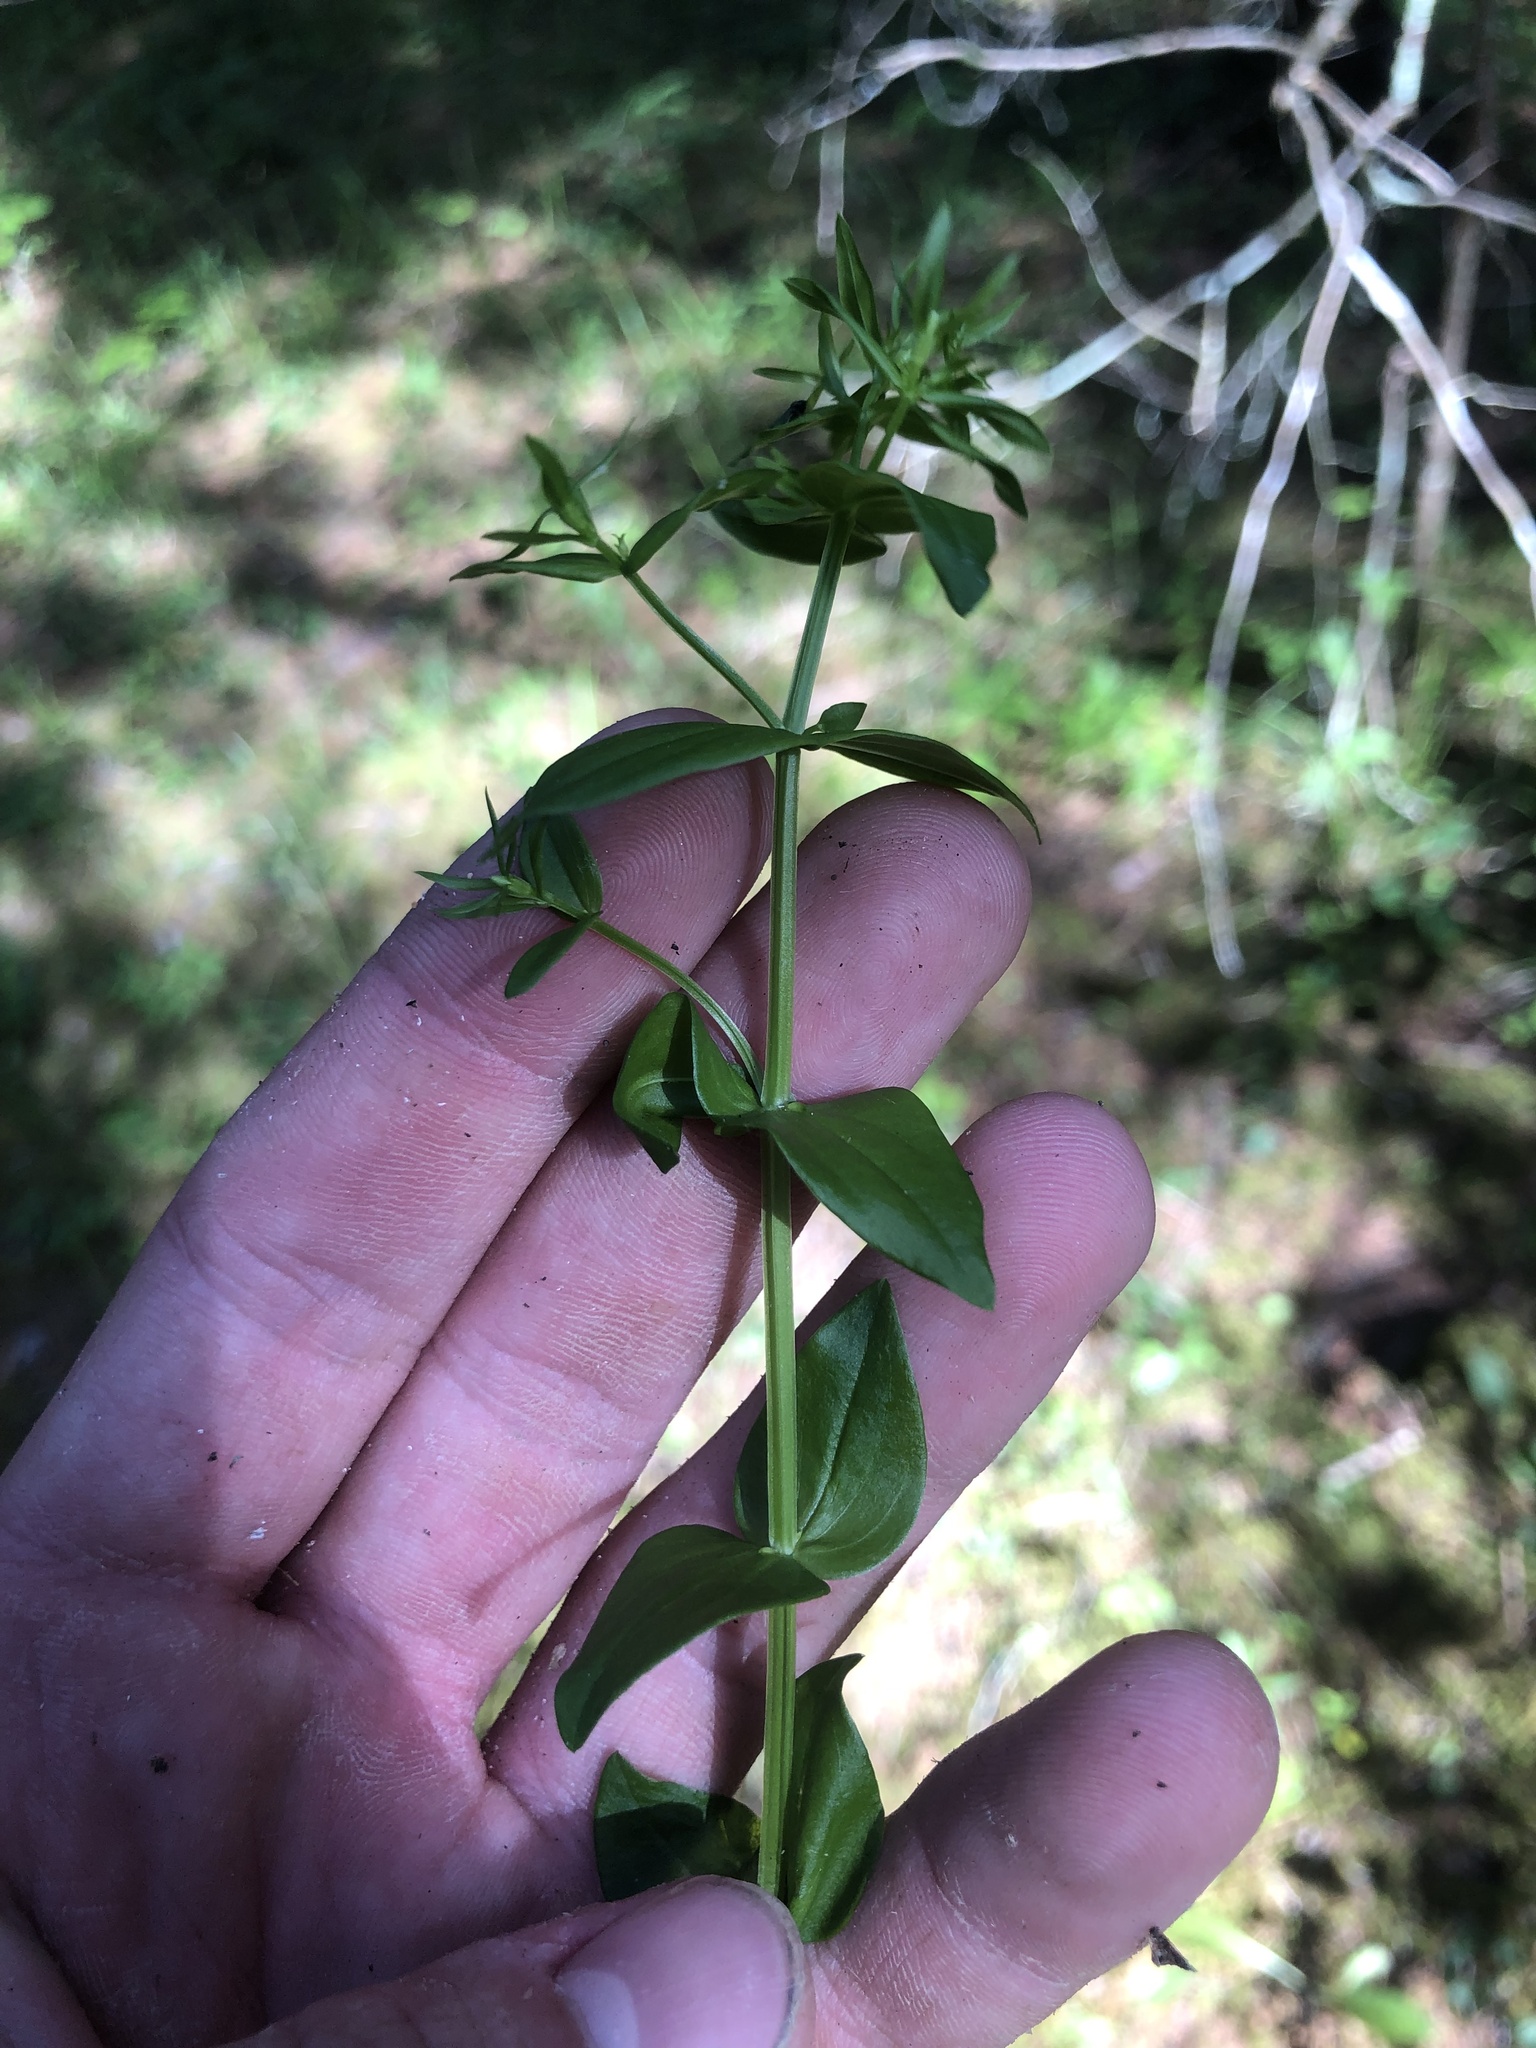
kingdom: Plantae
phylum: Tracheophyta
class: Magnoliopsida
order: Gentianales
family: Gentianaceae
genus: Sabatia
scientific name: Sabatia angularis
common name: Rose-pink
